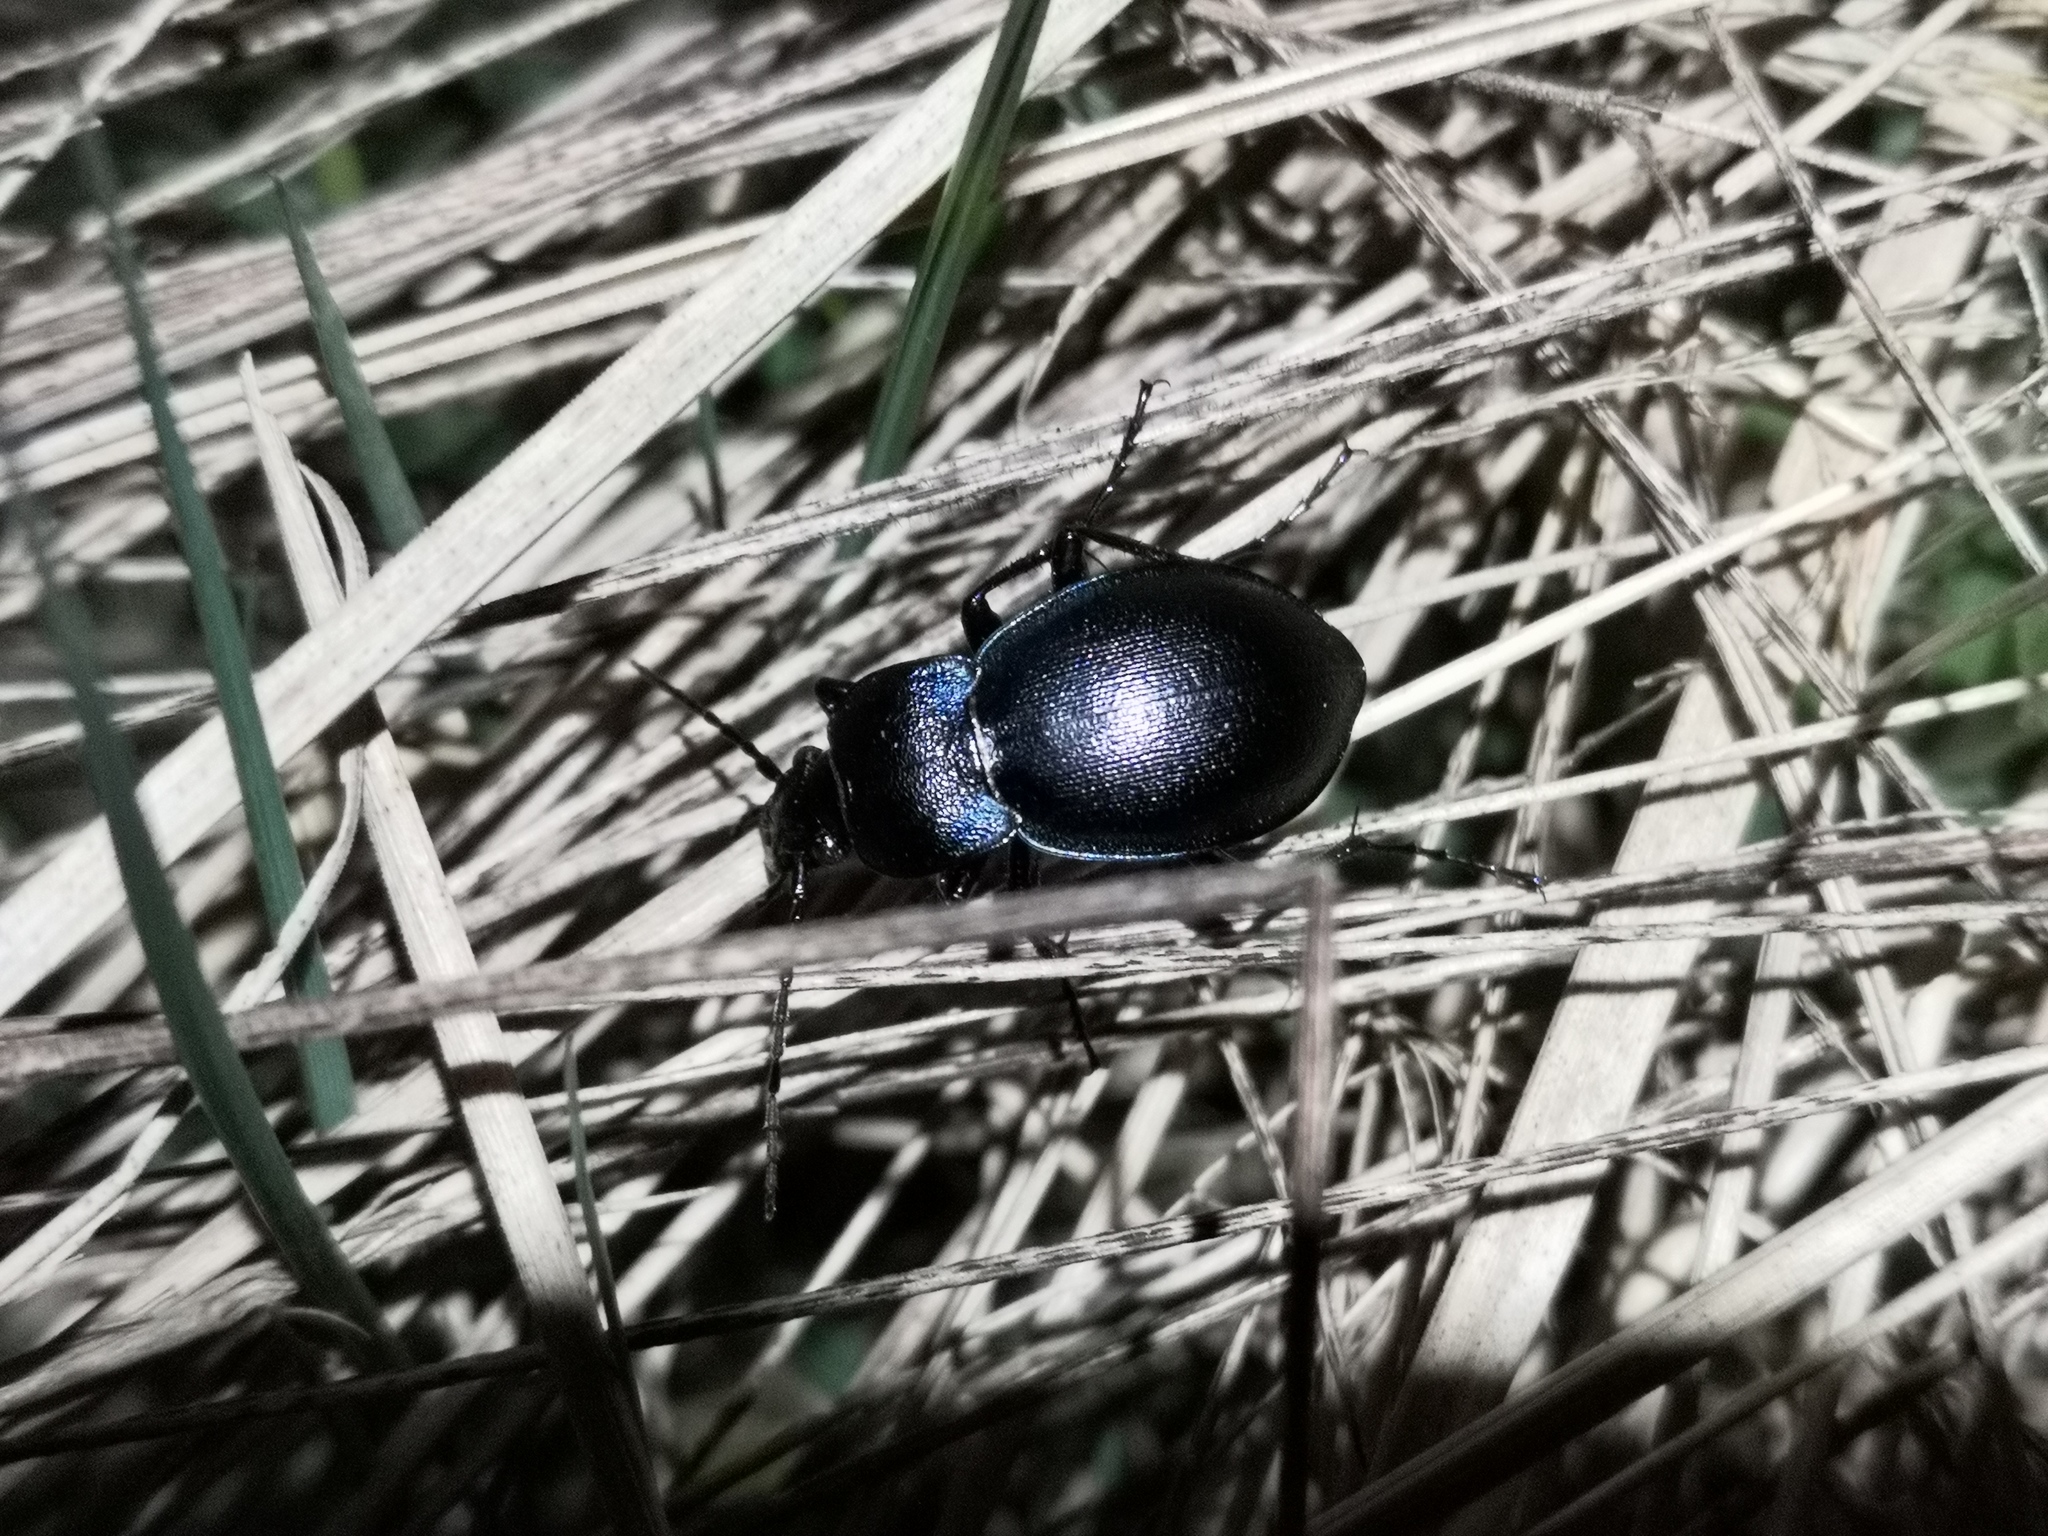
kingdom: Animalia
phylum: Arthropoda
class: Insecta
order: Coleoptera
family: Carabidae
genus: Carabus
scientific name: Carabus convexus
